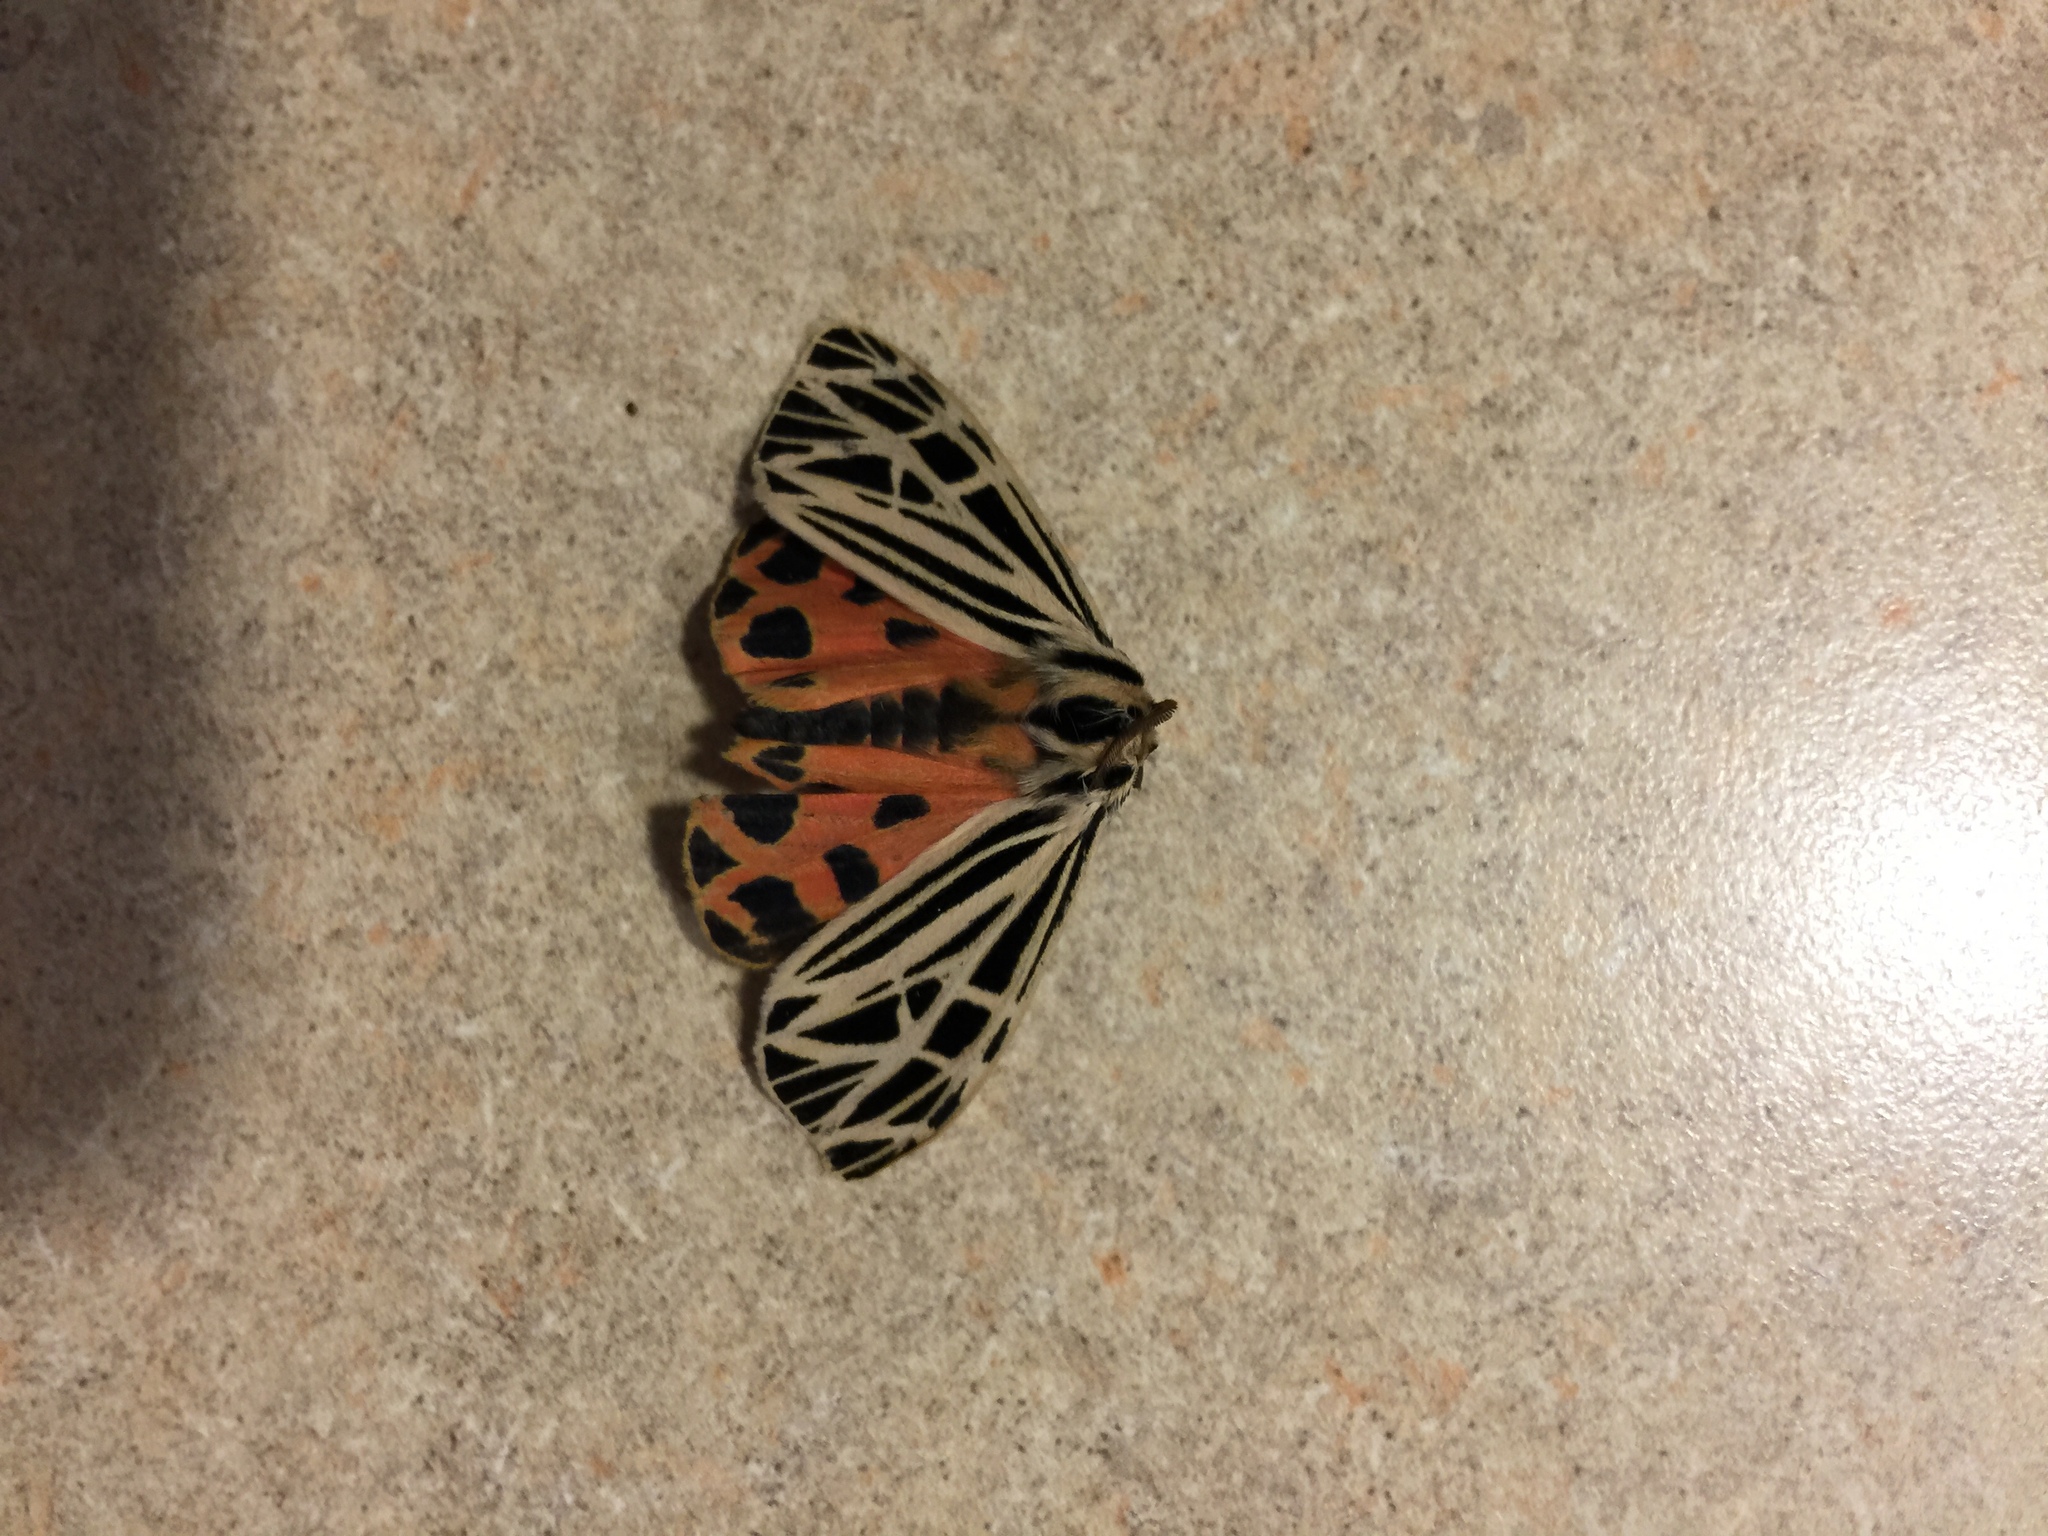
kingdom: Animalia
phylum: Arthropoda
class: Insecta
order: Lepidoptera
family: Erebidae
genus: Grammia
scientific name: Grammia virgo
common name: Virgin tiger moth
